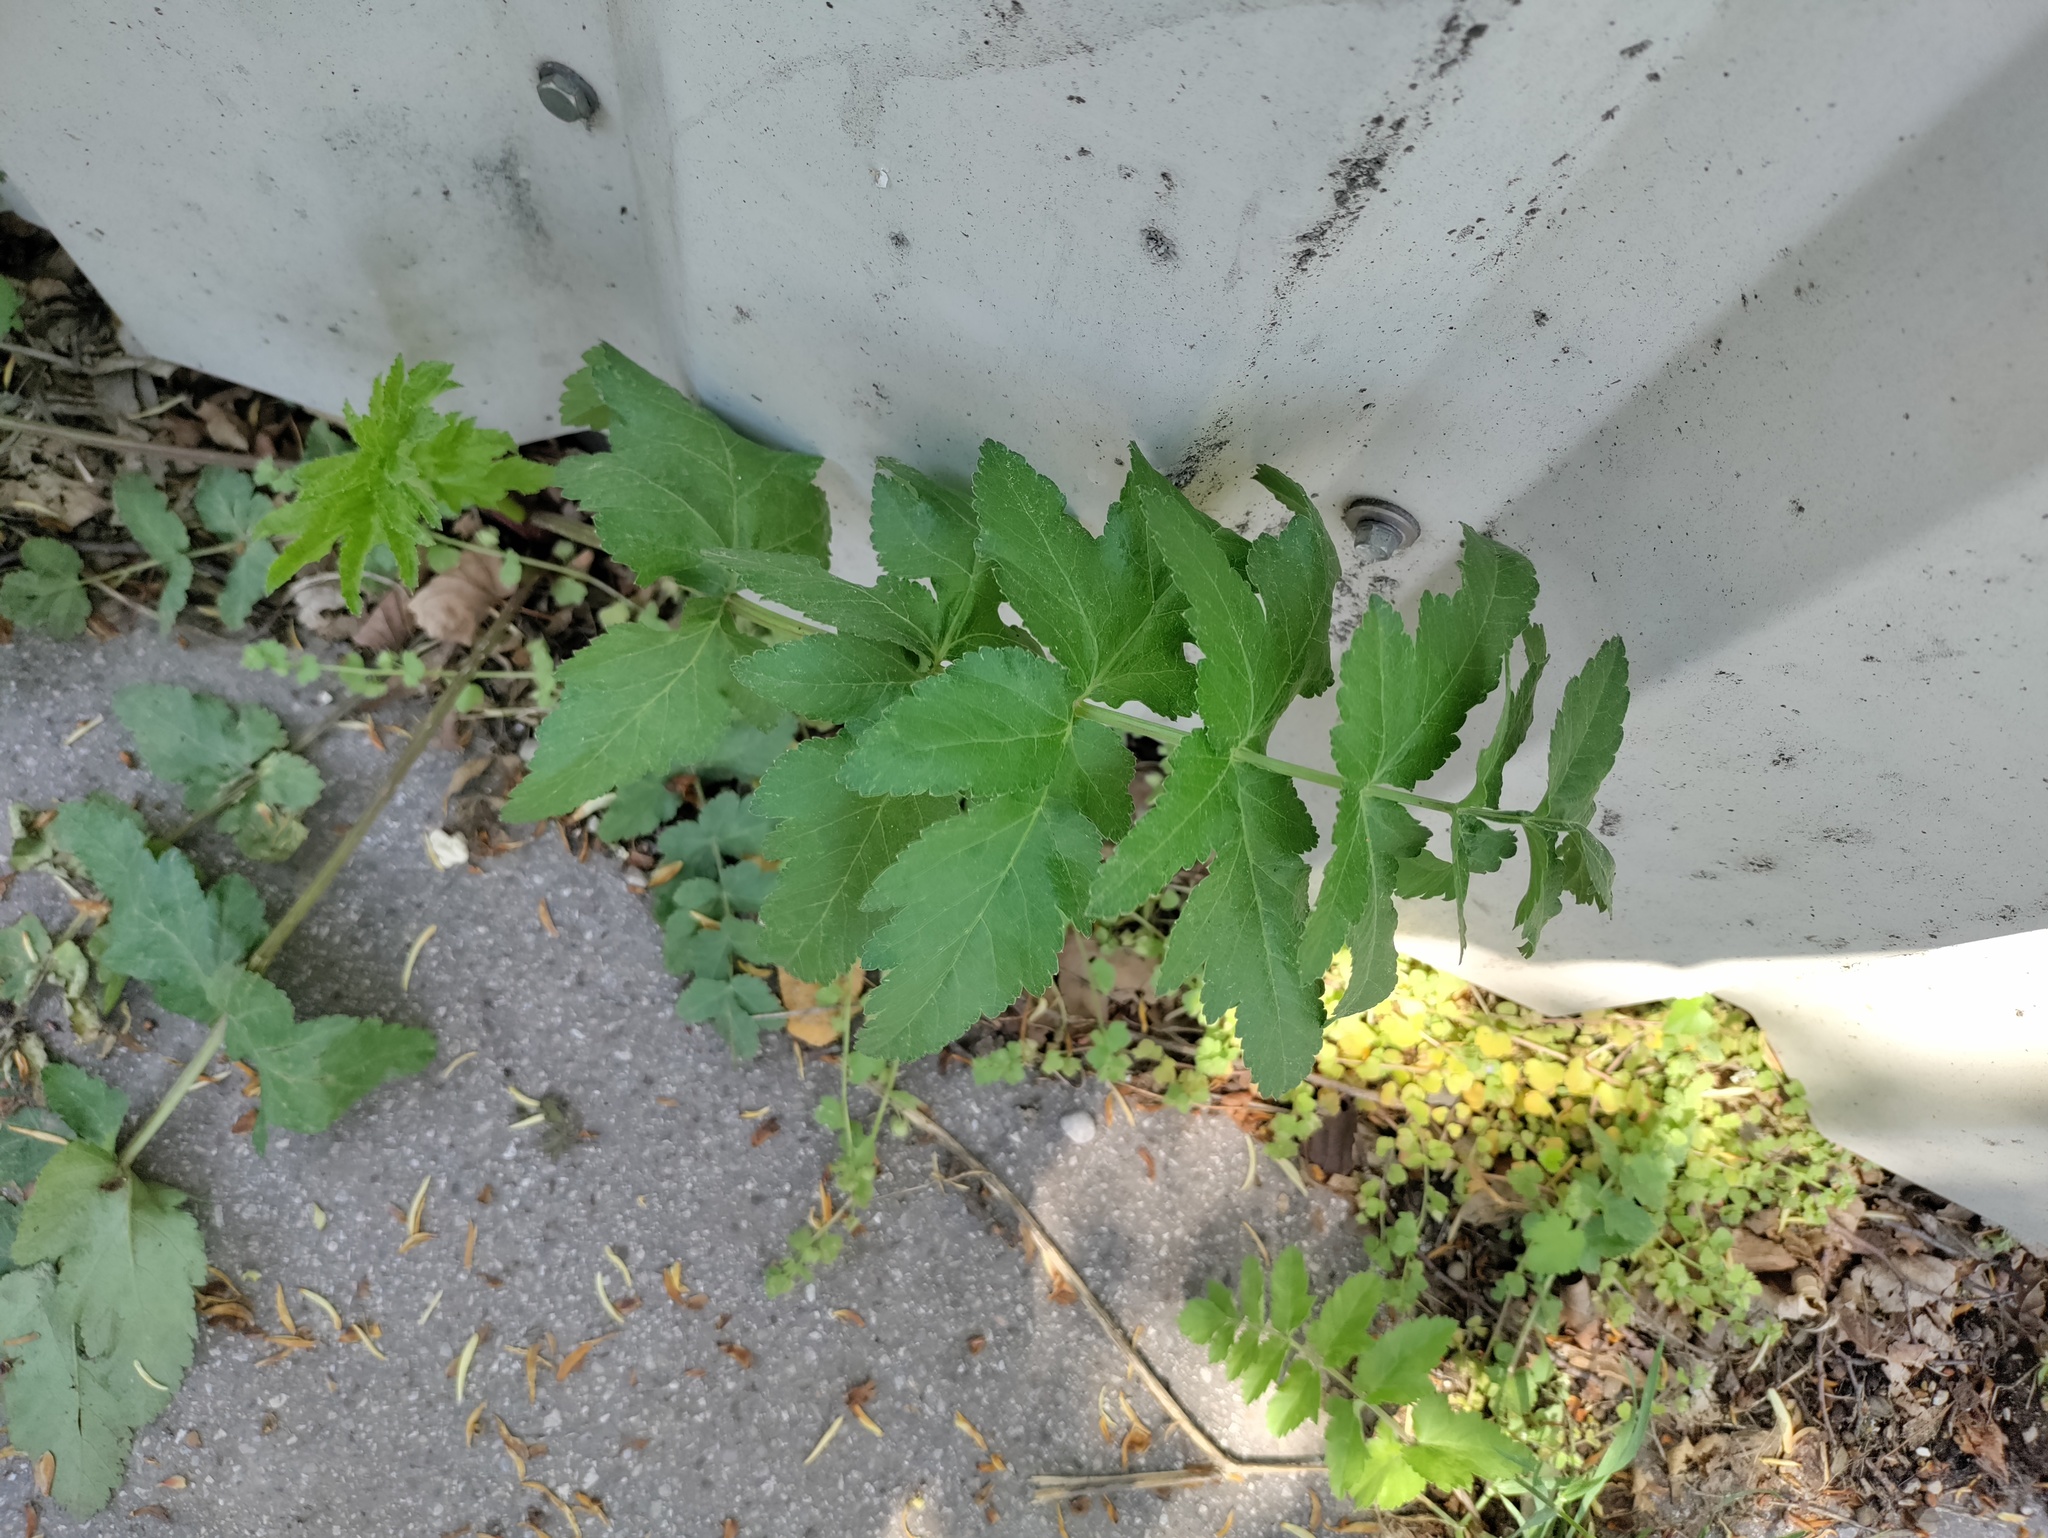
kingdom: Plantae
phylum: Tracheophyta
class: Magnoliopsida
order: Apiales
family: Apiaceae
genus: Pastinaca
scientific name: Pastinaca sativa
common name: Wild parsnip
